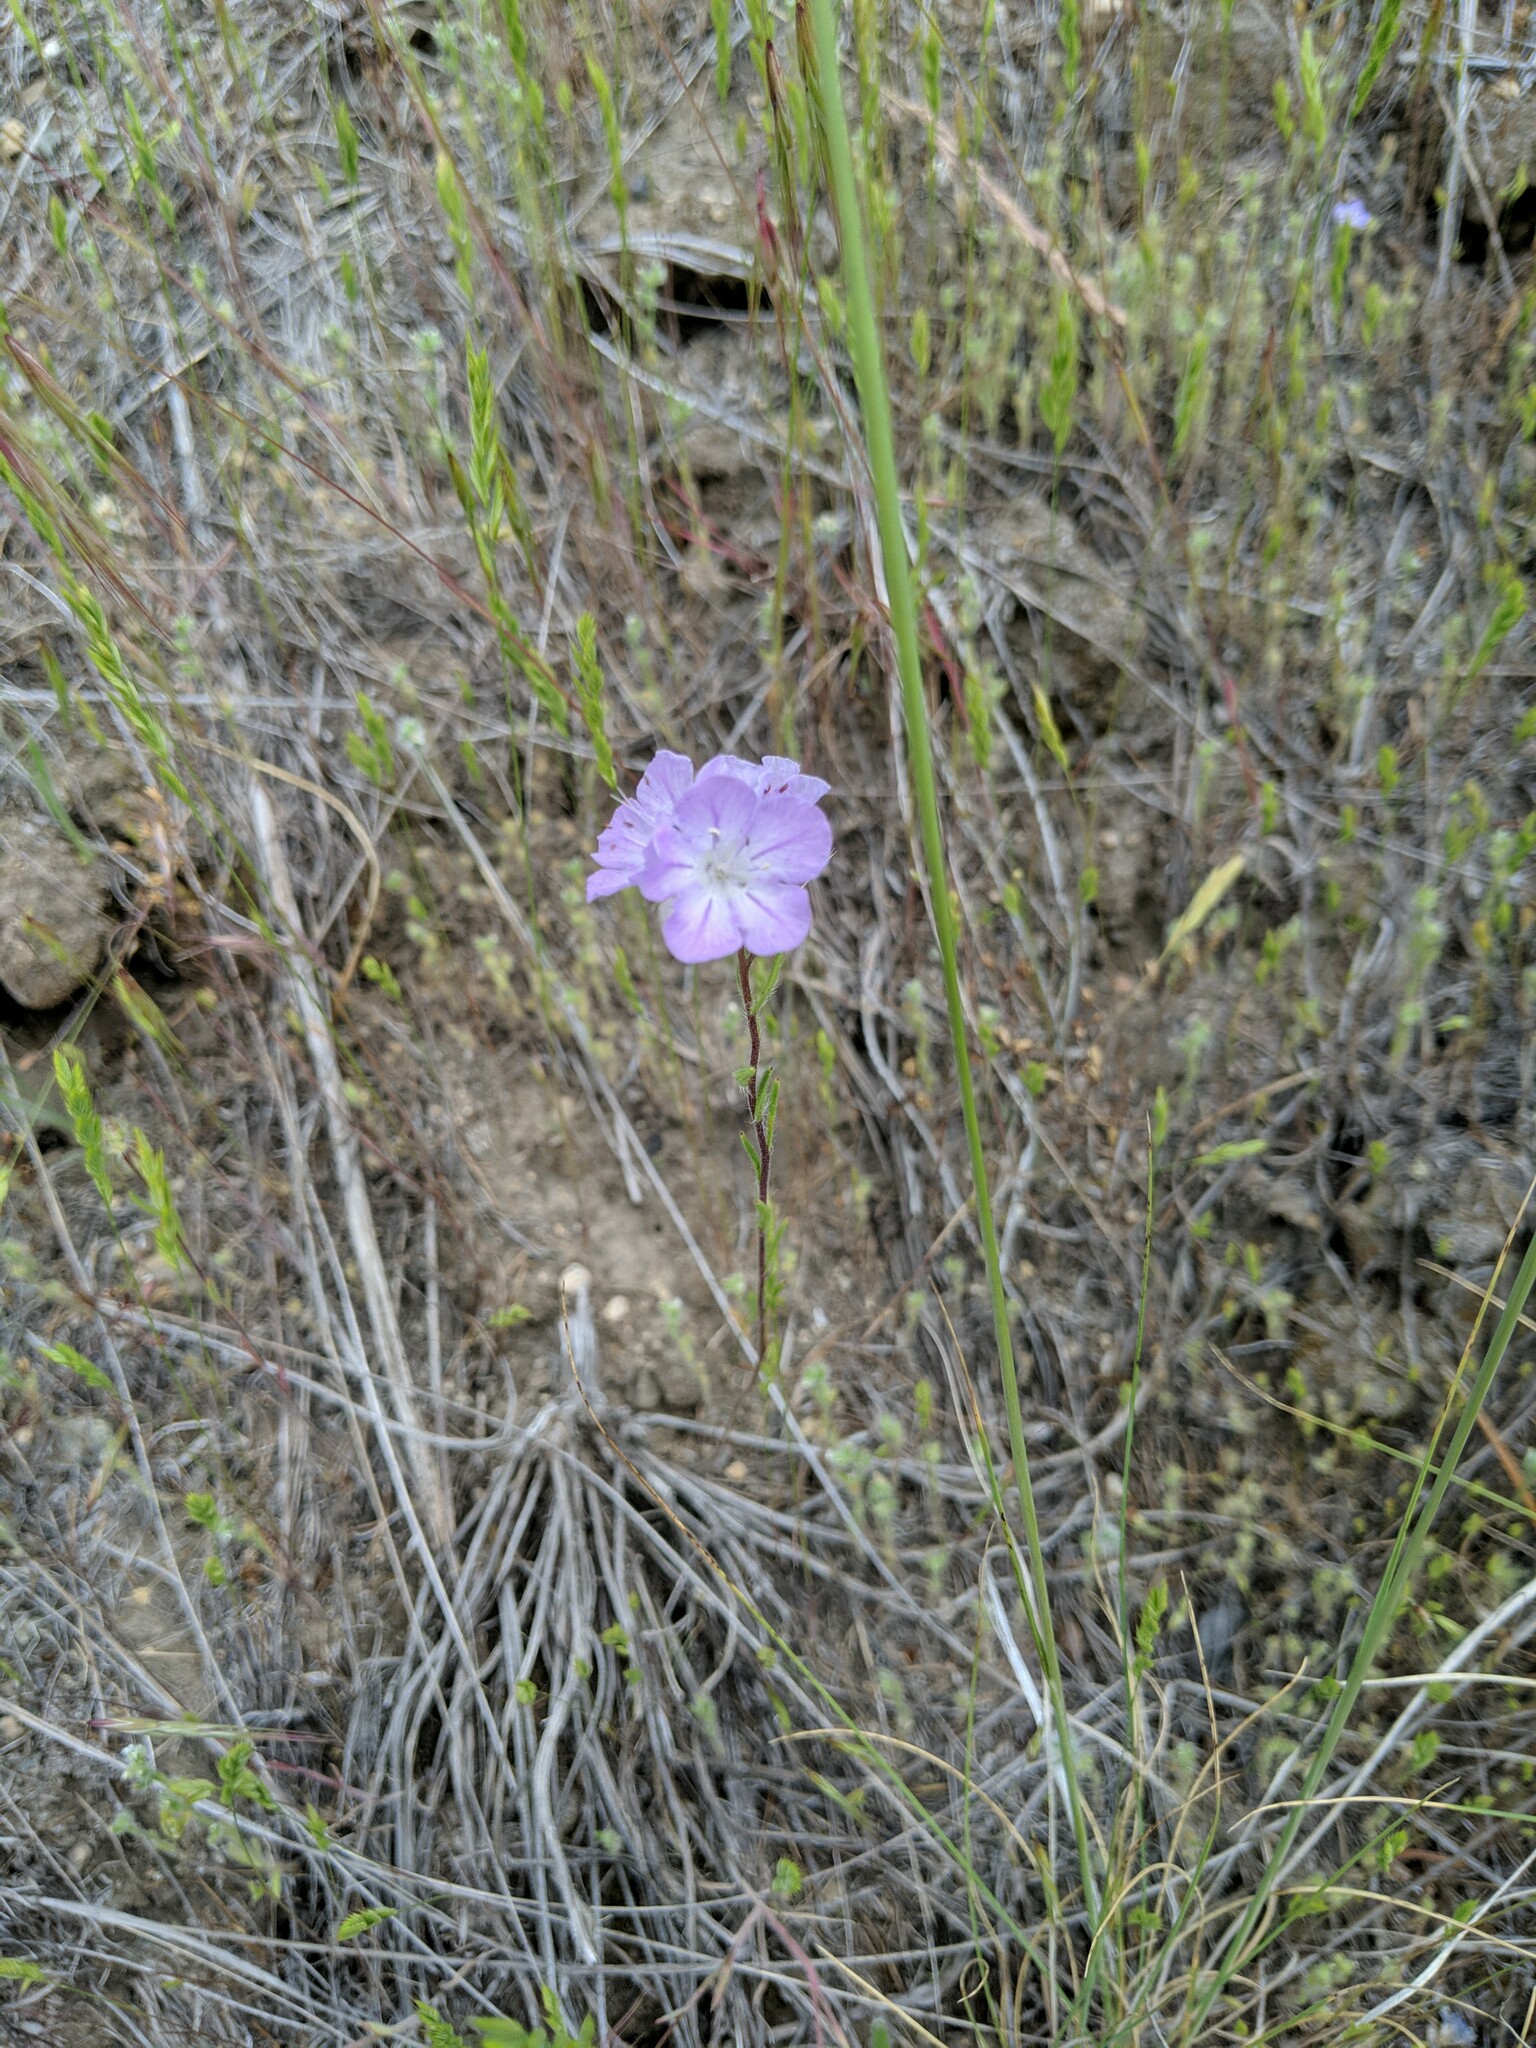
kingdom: Plantae
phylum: Tracheophyta
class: Magnoliopsida
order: Boraginales
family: Hydrophyllaceae
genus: Phacelia
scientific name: Phacelia linearis
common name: Linear-leaved phacelia
